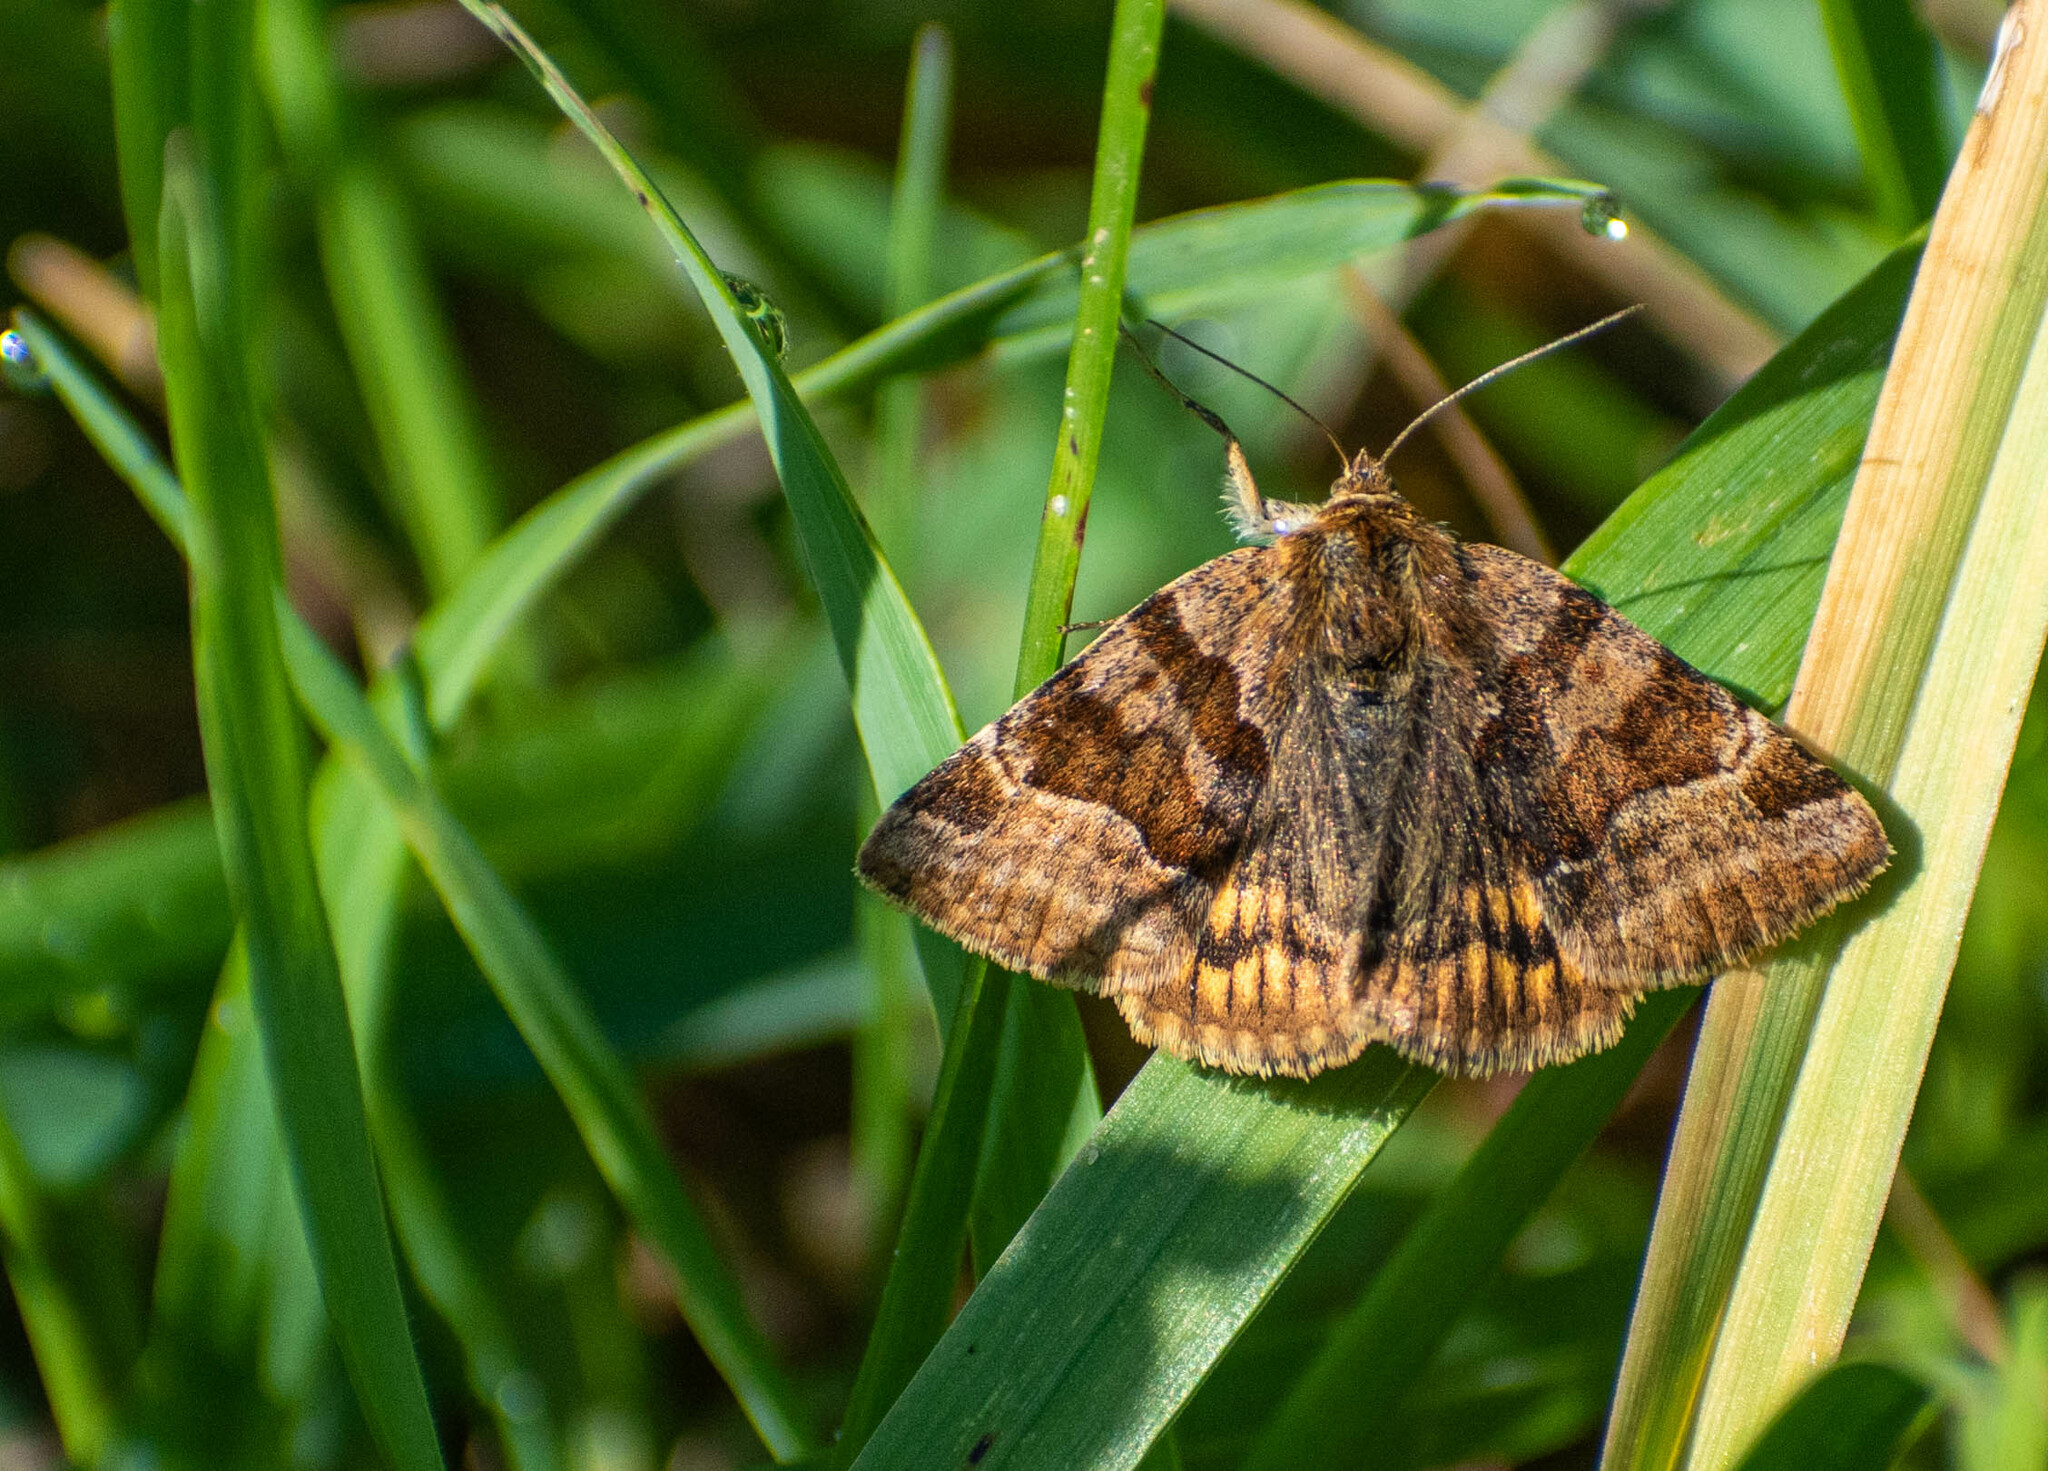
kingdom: Animalia
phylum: Arthropoda
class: Insecta
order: Lepidoptera
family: Erebidae
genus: Euclidia
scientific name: Euclidia glyphica
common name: Burnet companion
